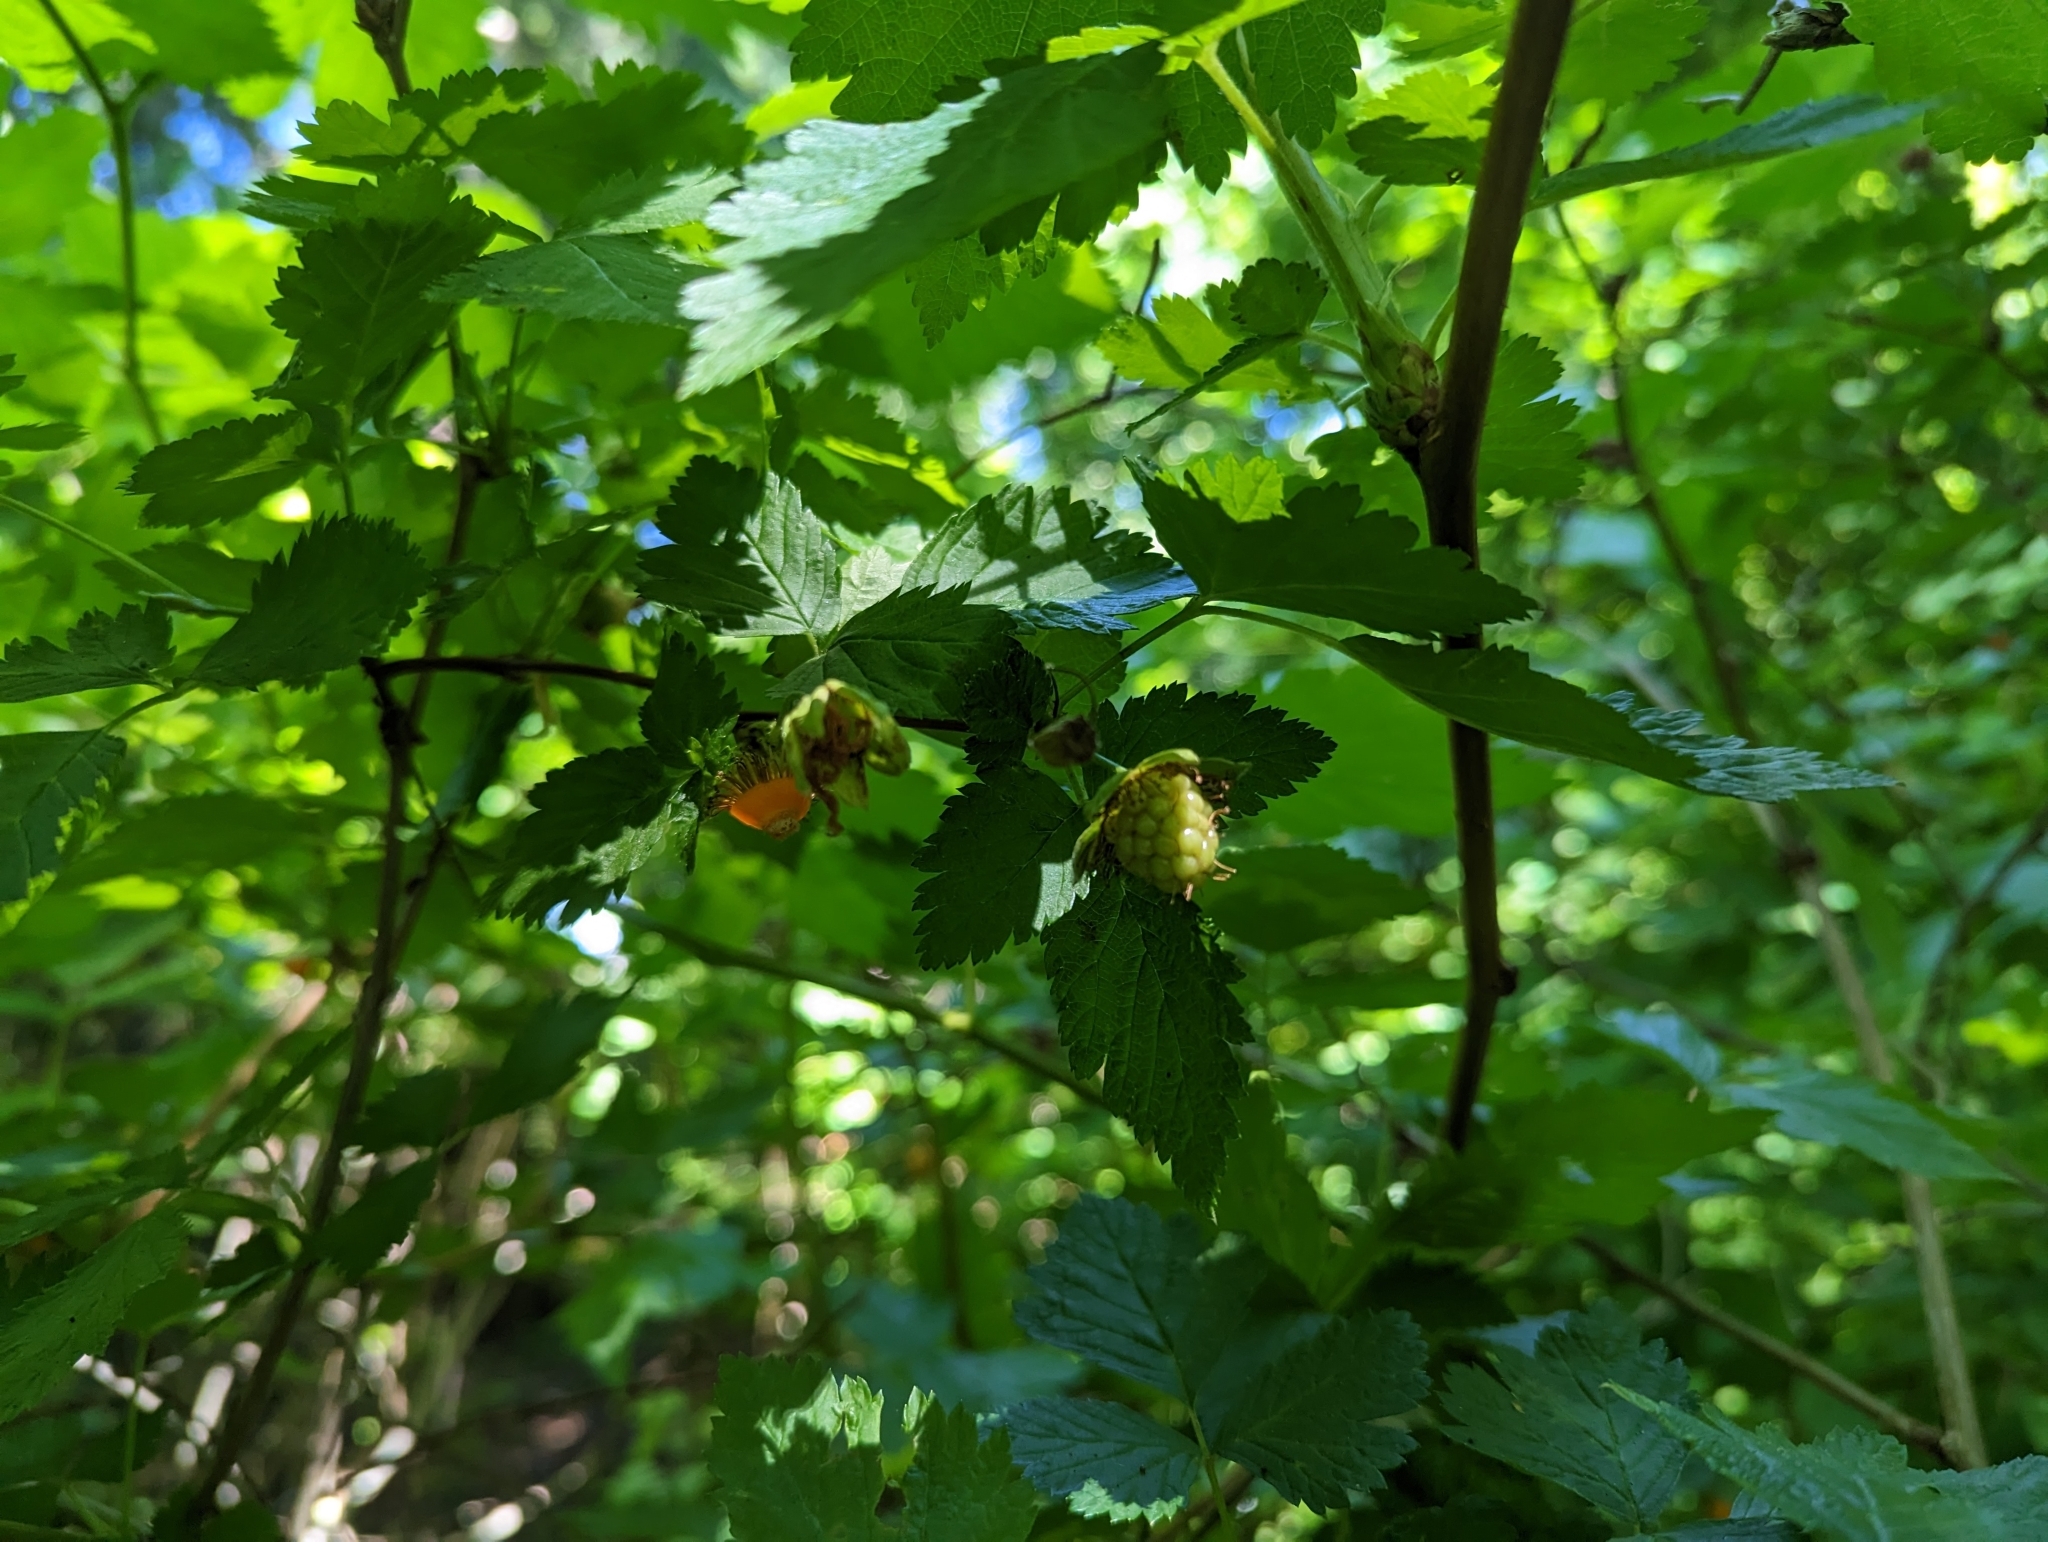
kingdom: Plantae
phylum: Tracheophyta
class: Magnoliopsida
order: Rosales
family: Rosaceae
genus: Rubus
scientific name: Rubus spectabilis
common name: Salmonberry
